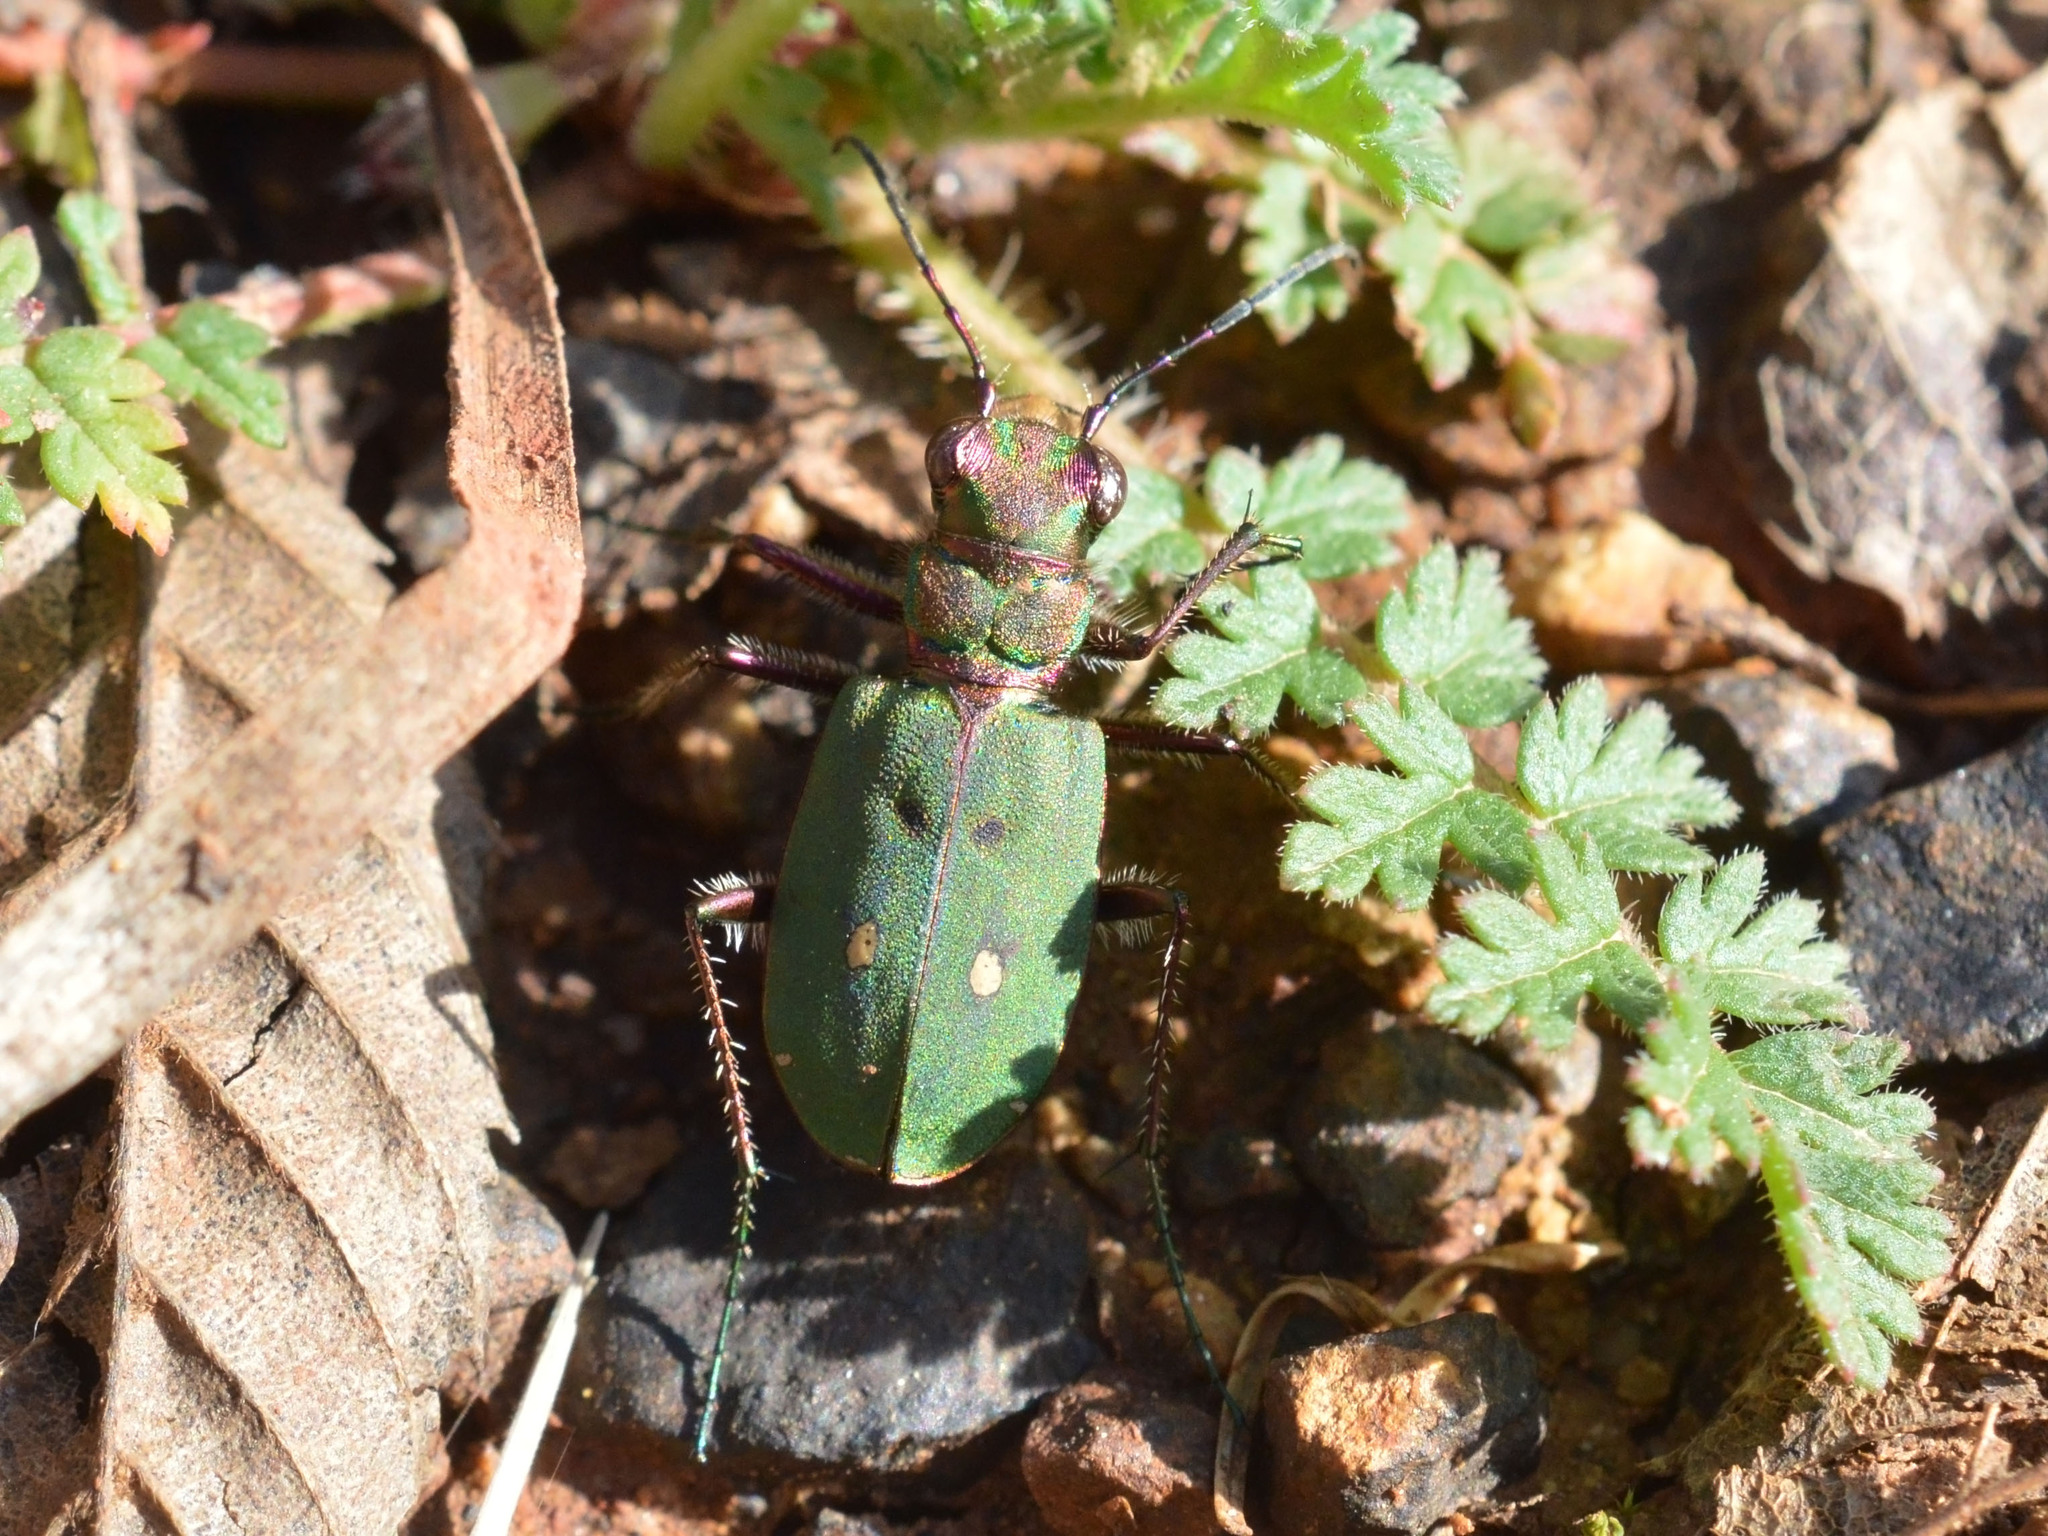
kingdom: Animalia
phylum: Arthropoda
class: Insecta
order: Coleoptera
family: Carabidae
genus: Cicindela
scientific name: Cicindela campestris
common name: Common tiger beetle
